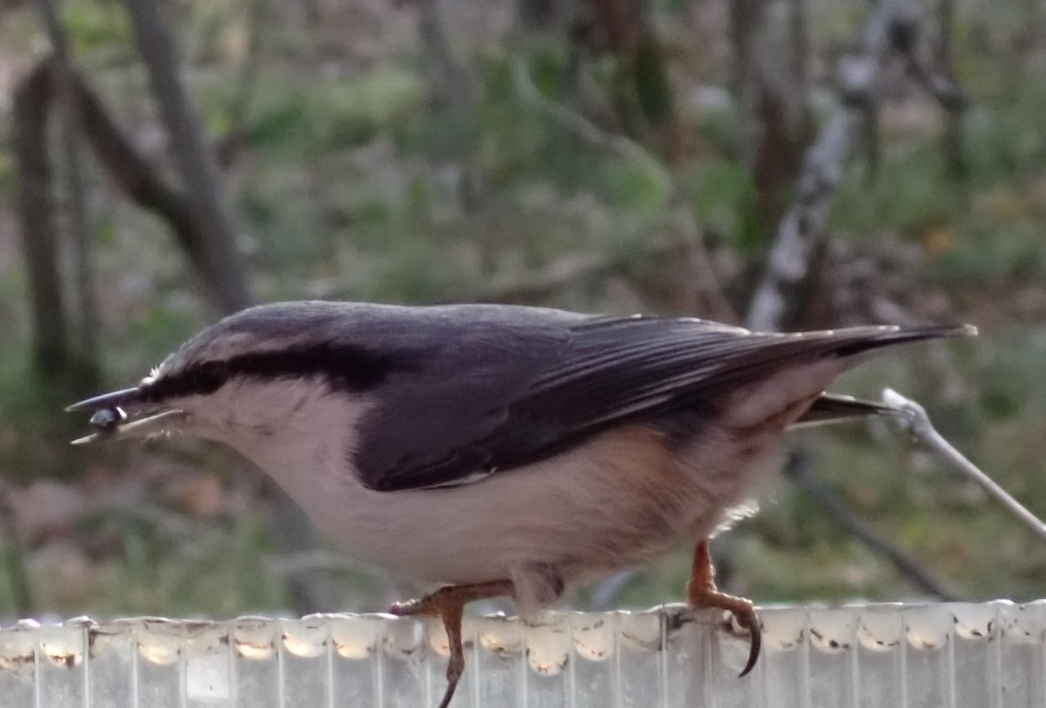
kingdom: Animalia
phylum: Chordata
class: Aves
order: Passeriformes
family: Sittidae
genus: Sitta
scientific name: Sitta europaea
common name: Eurasian nuthatch
